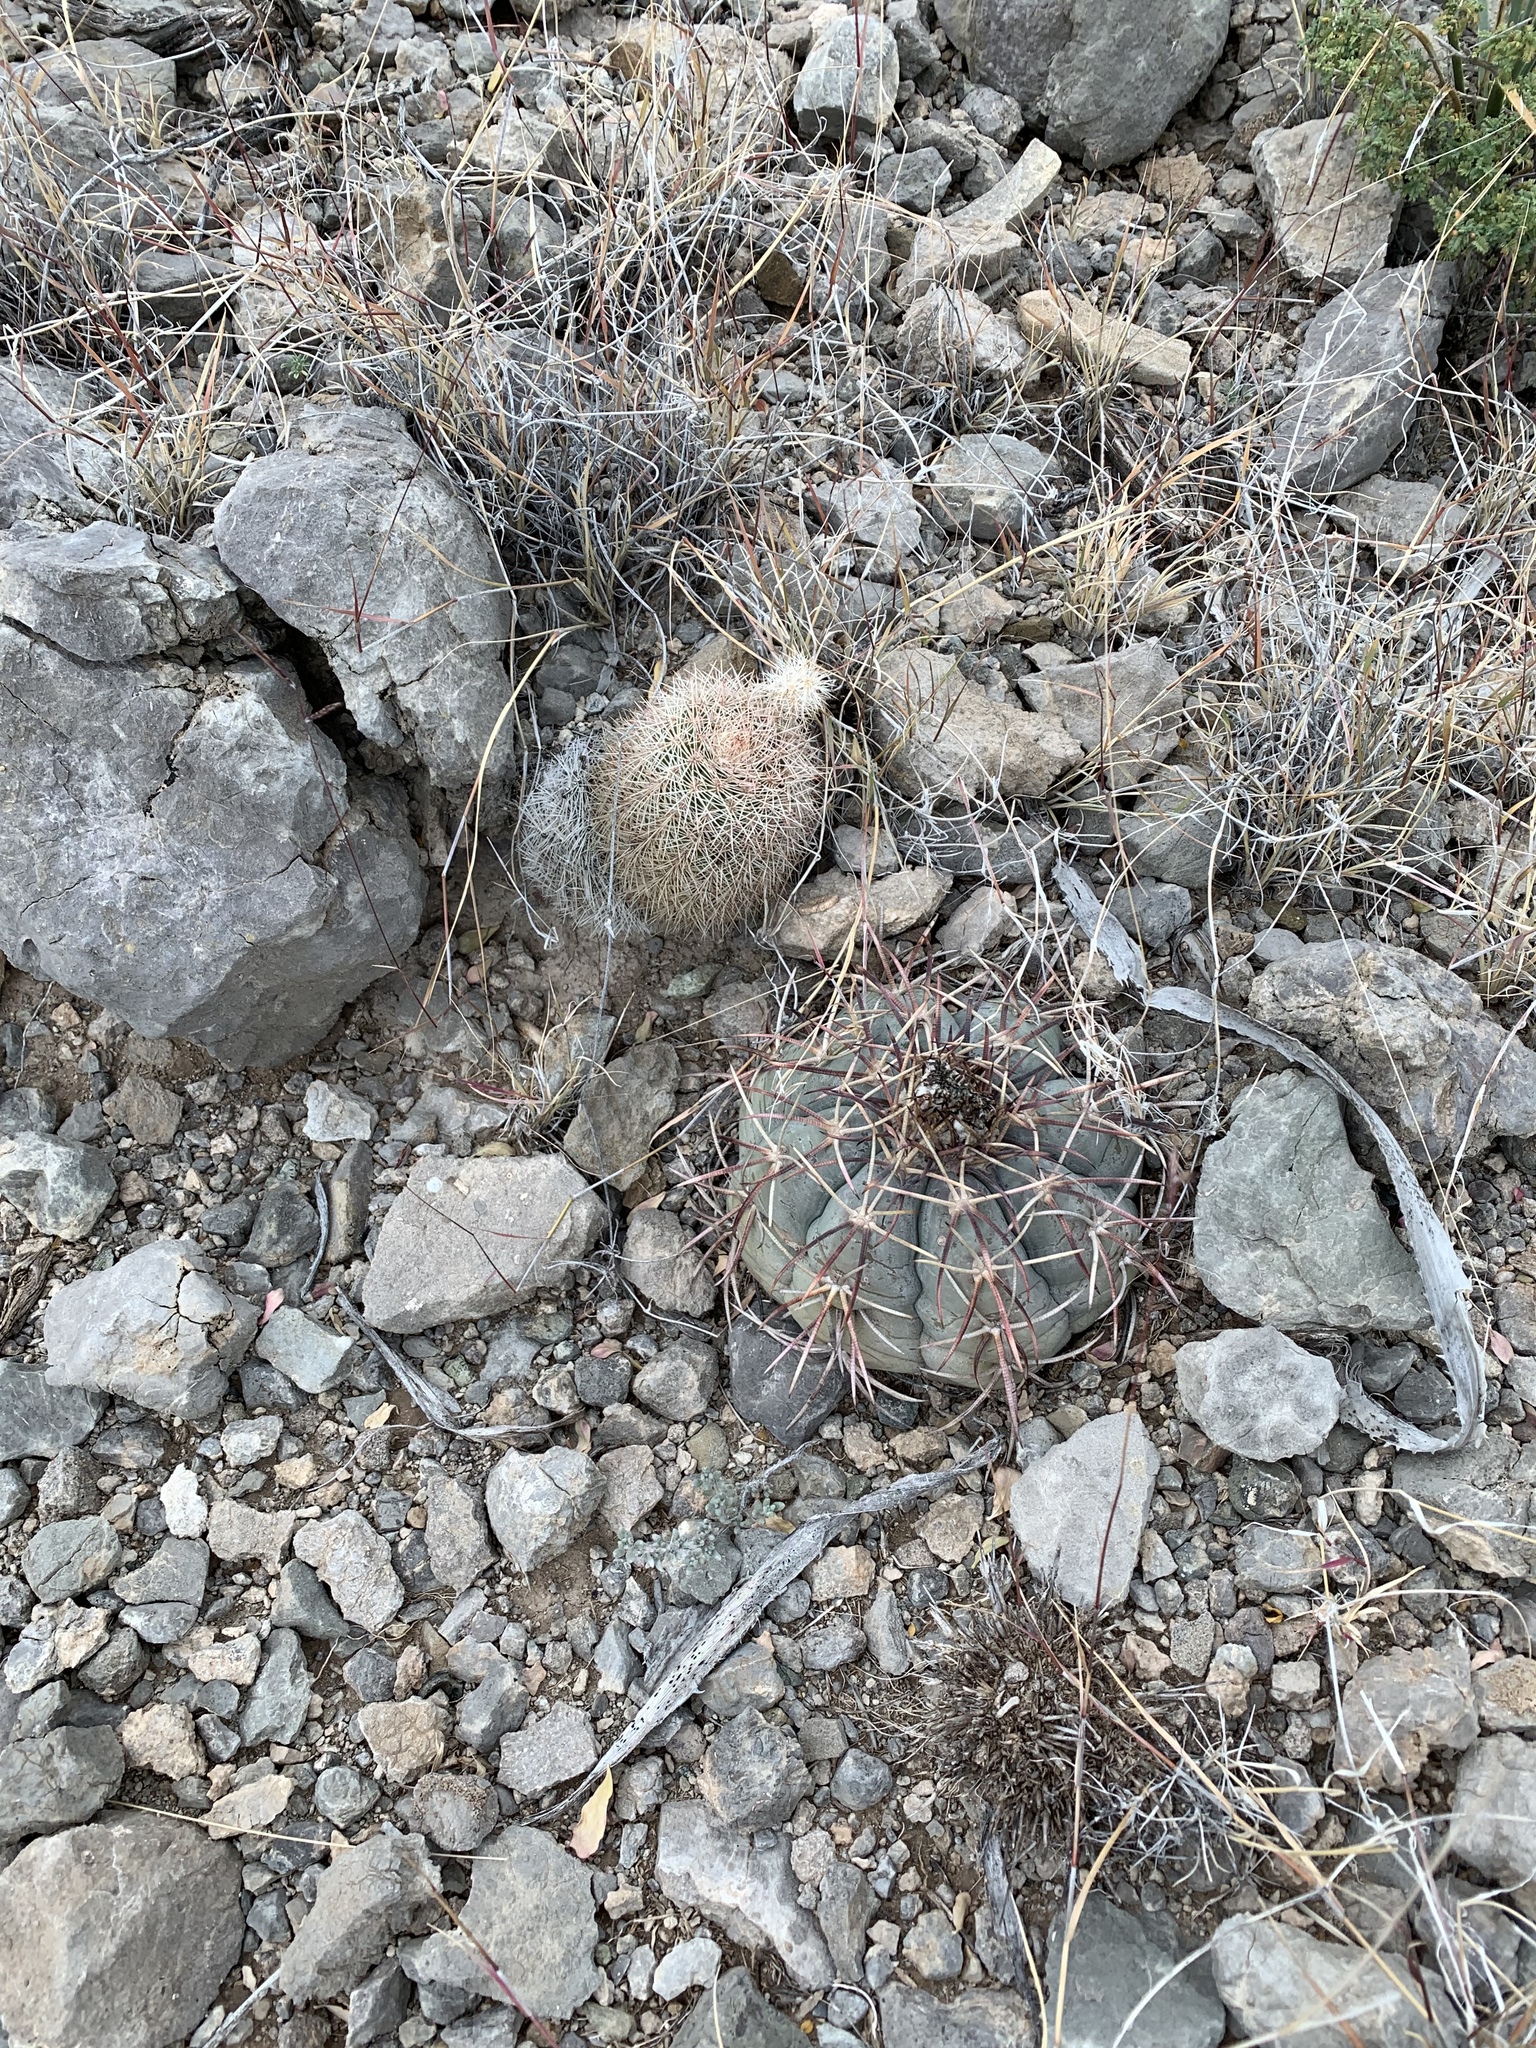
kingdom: Plantae
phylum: Tracheophyta
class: Magnoliopsida
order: Caryophyllales
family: Cactaceae
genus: Echinocactus
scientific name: Echinocactus horizonthalonius
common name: Devilshead
